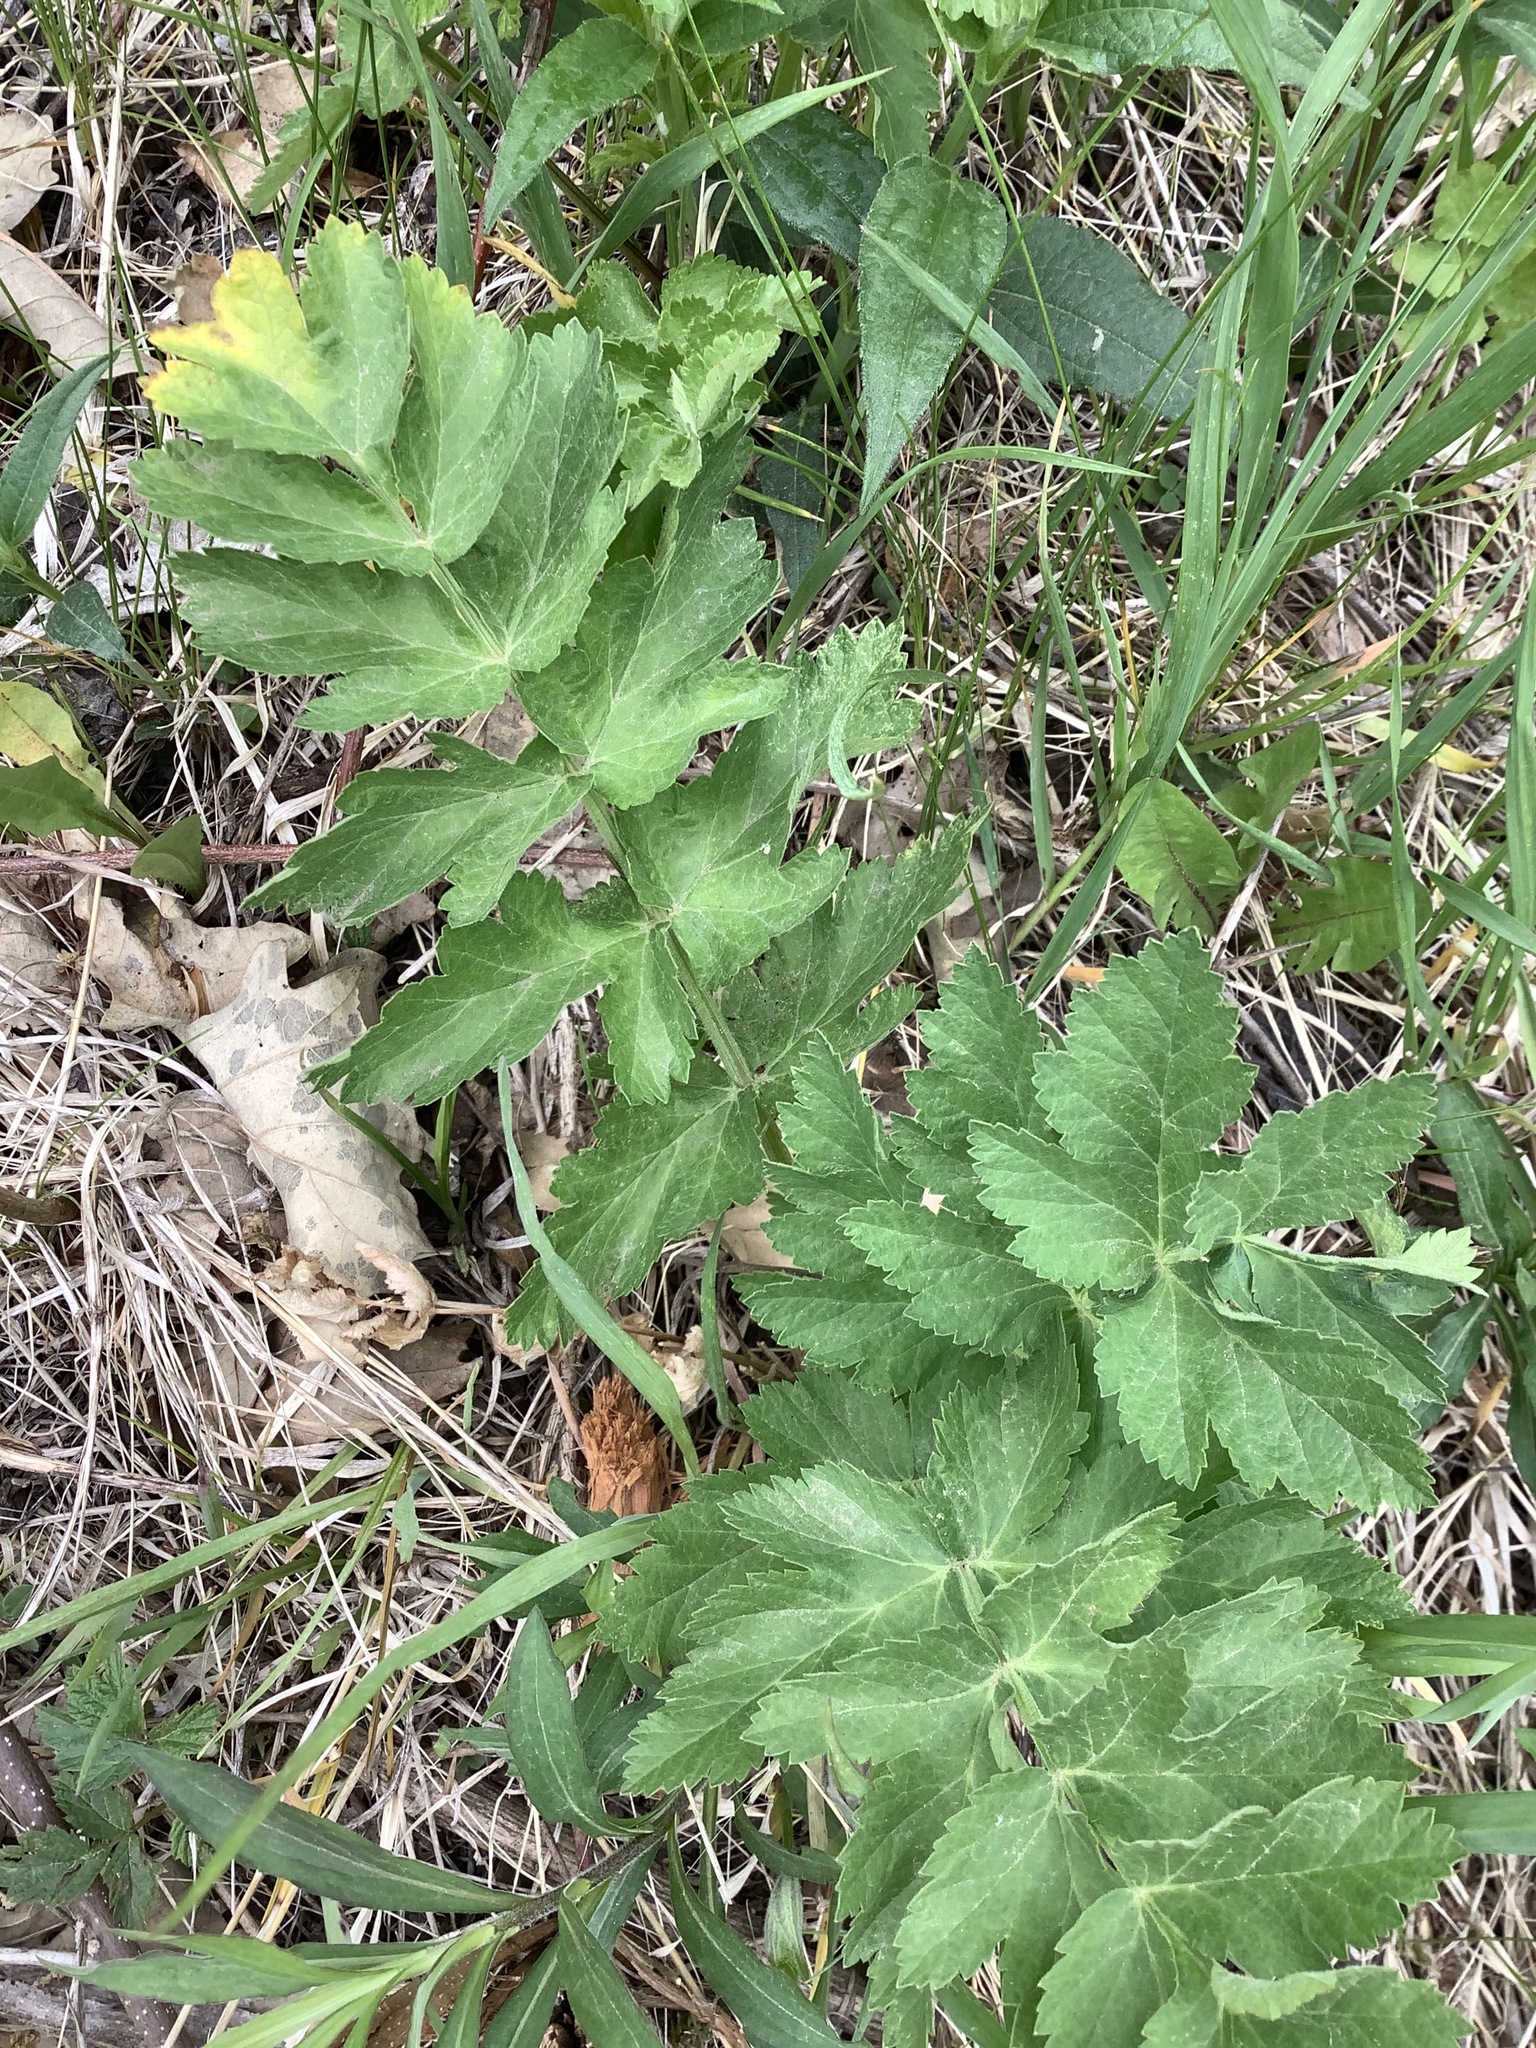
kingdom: Plantae
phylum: Tracheophyta
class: Magnoliopsida
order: Apiales
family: Apiaceae
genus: Pastinaca
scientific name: Pastinaca sativa
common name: Wild parsnip
